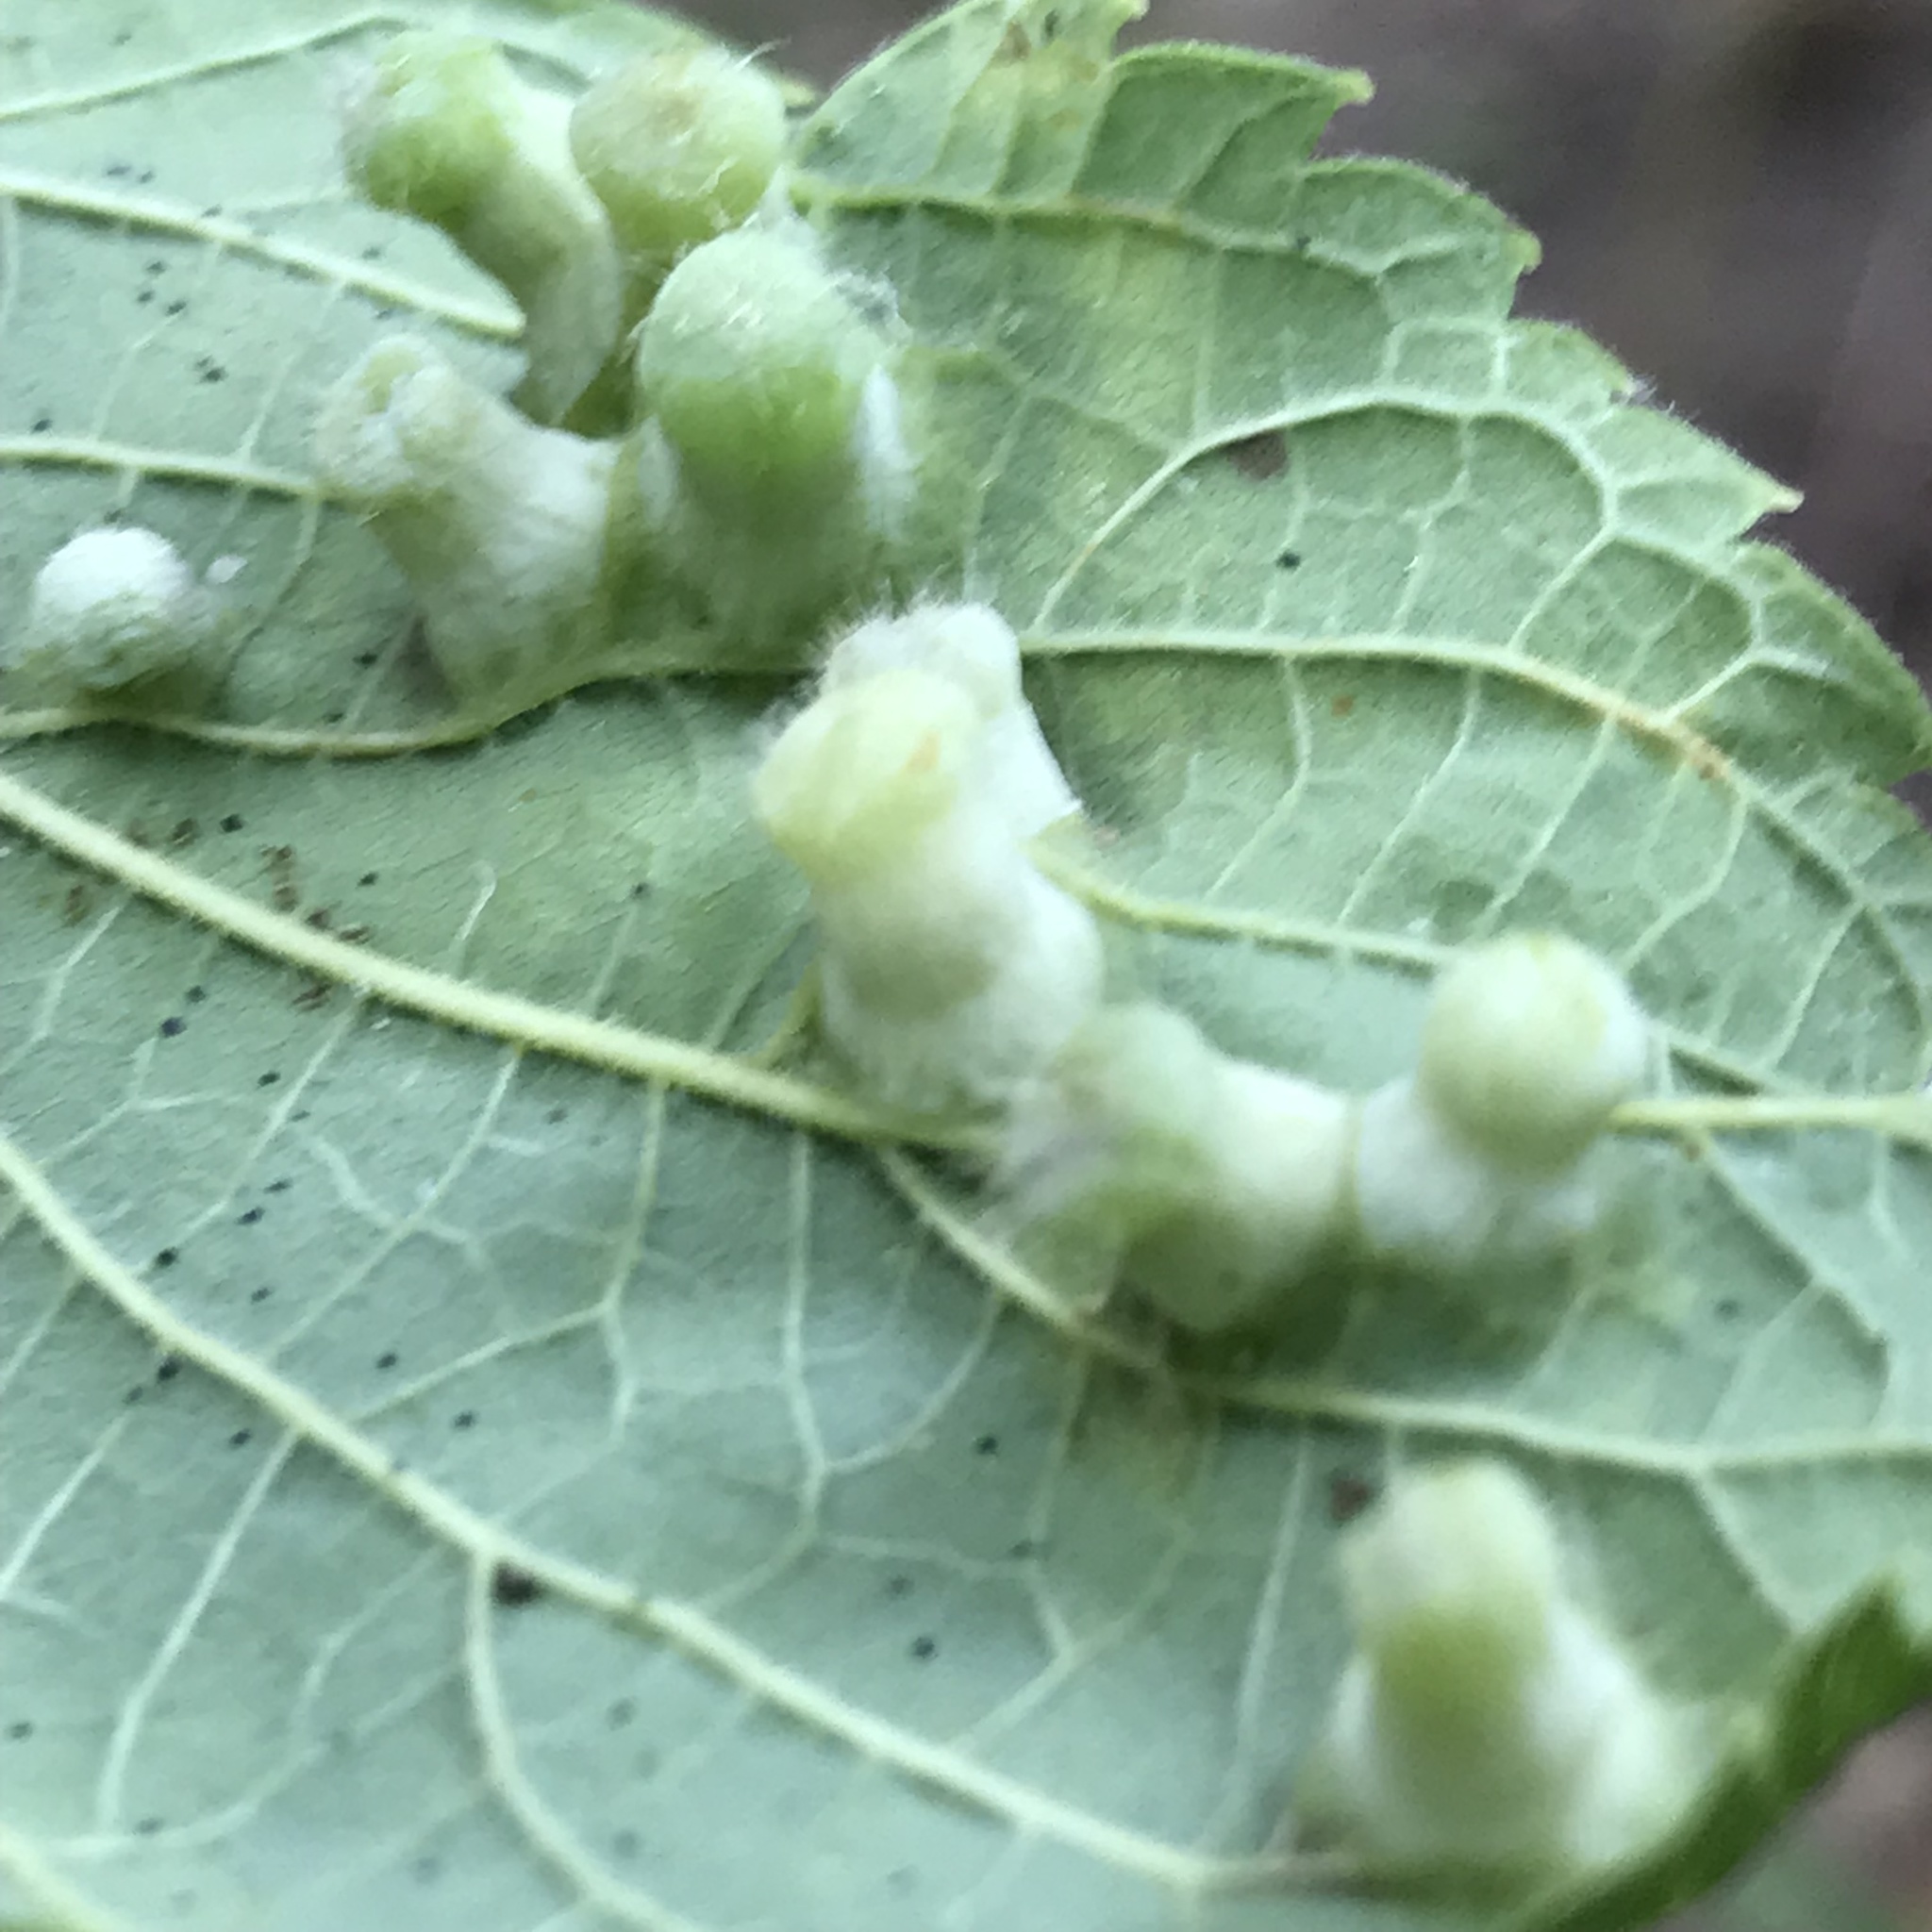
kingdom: Animalia
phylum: Arthropoda
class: Insecta
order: Hemiptera
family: Aphalaridae
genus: Pachypsylla
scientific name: Pachypsylla celtidismamma
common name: Hackberry nipplegall psyllid
